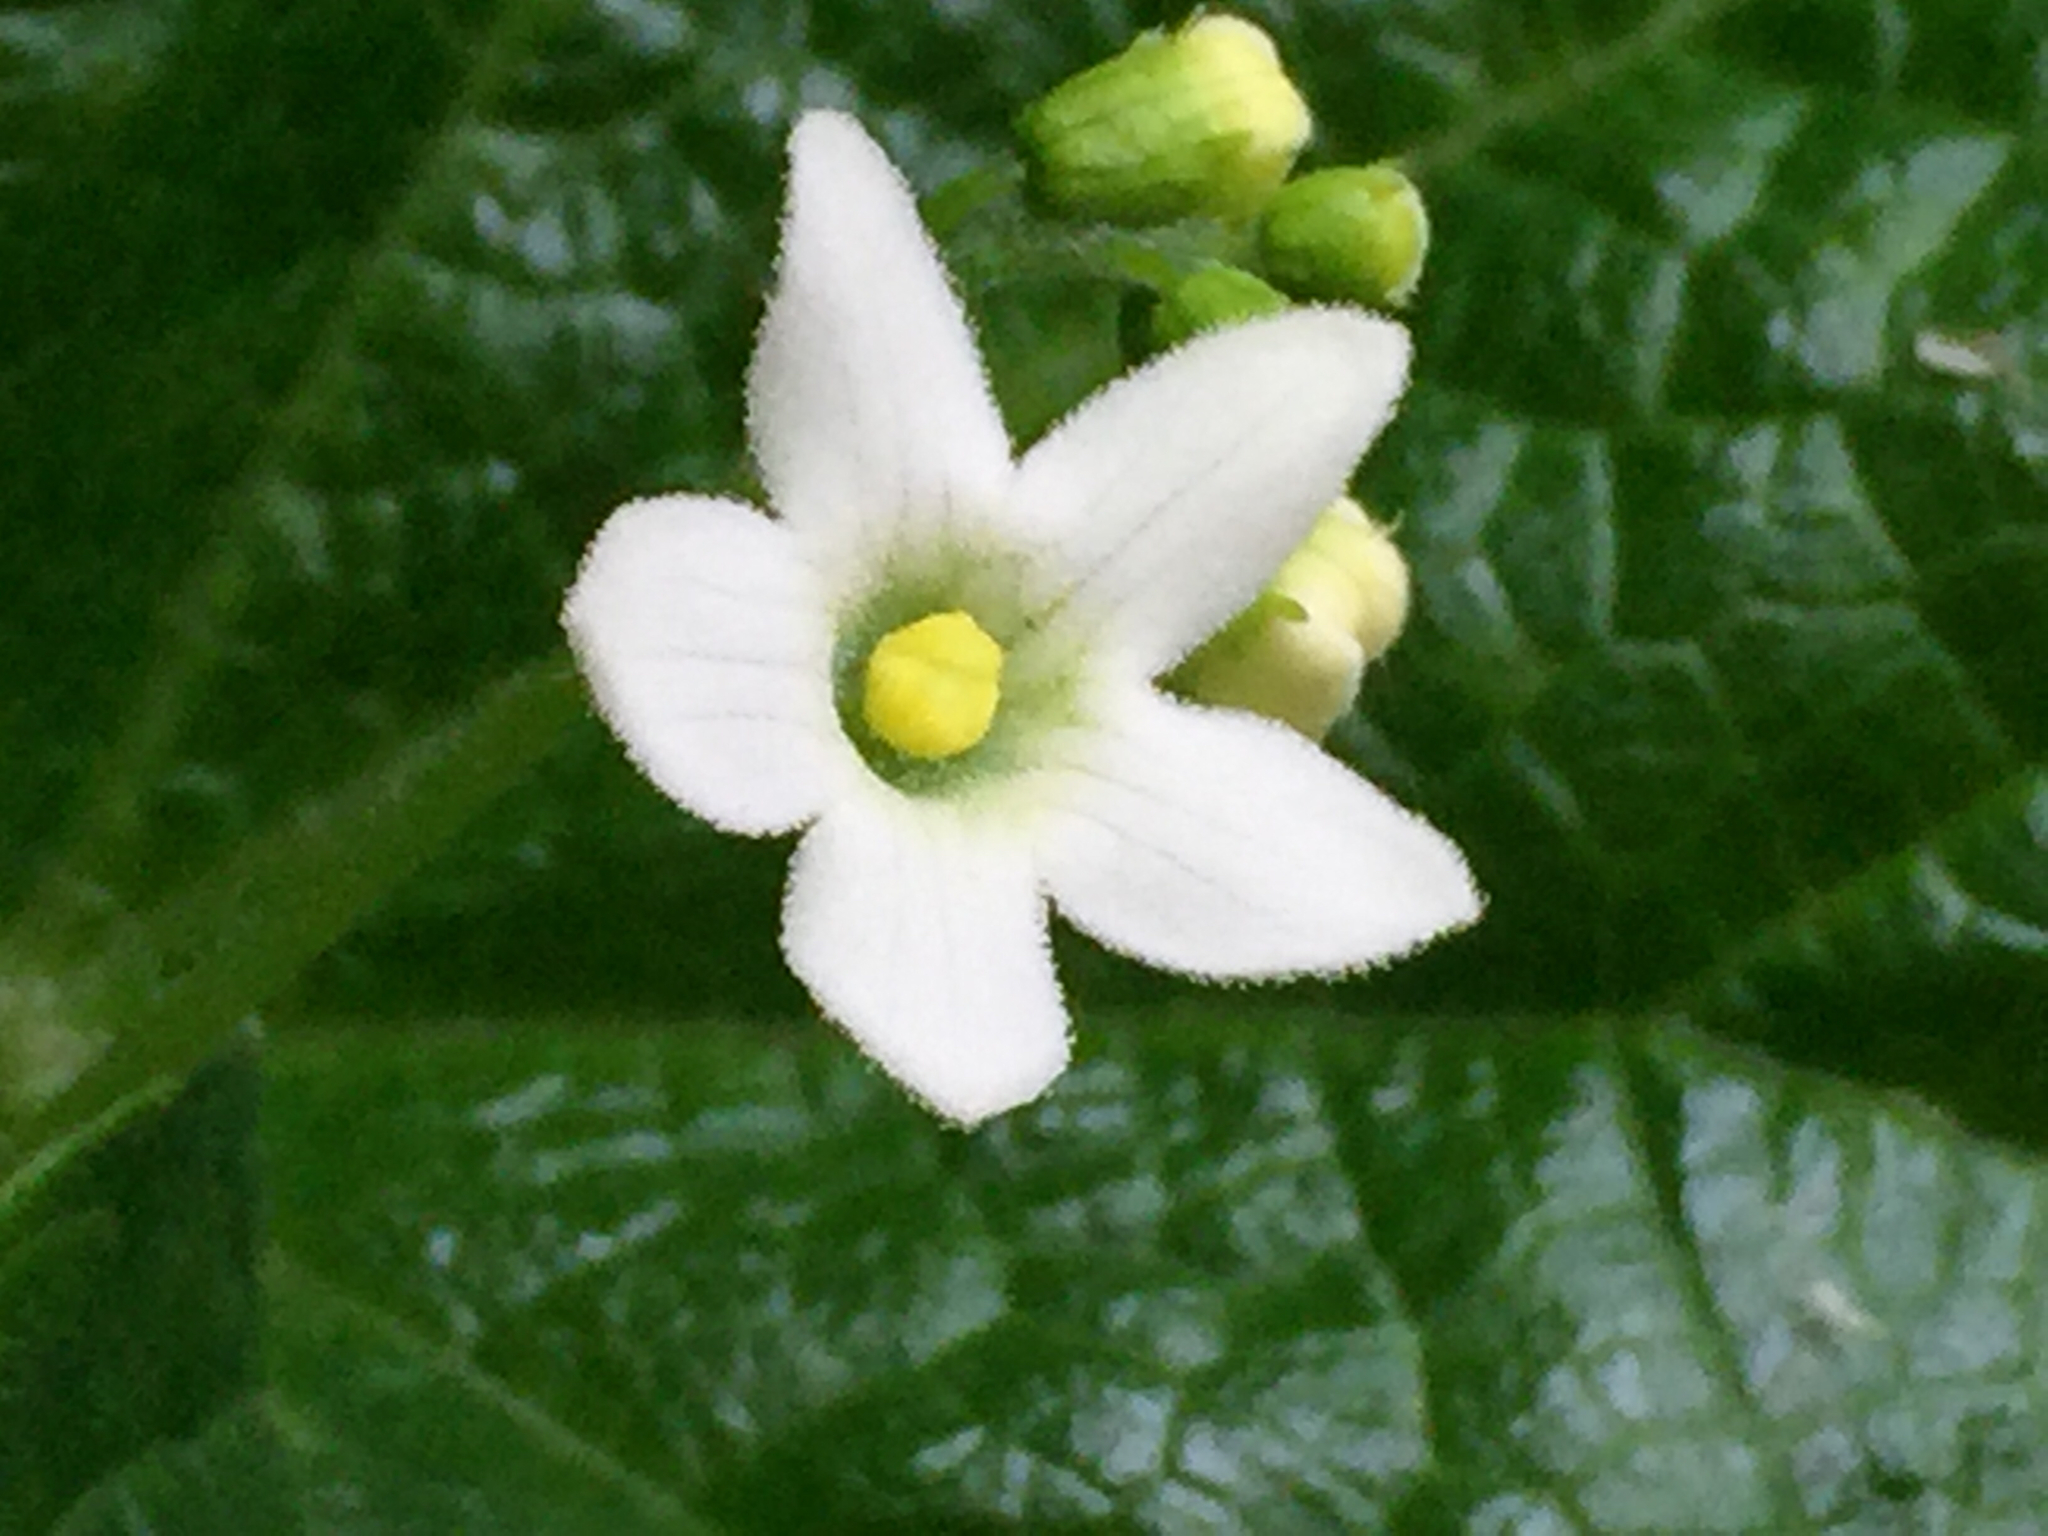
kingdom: Plantae
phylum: Tracheophyta
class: Magnoliopsida
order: Cucurbitales
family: Cucurbitaceae
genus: Marah
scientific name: Marah oregana
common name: Coastal manroot
